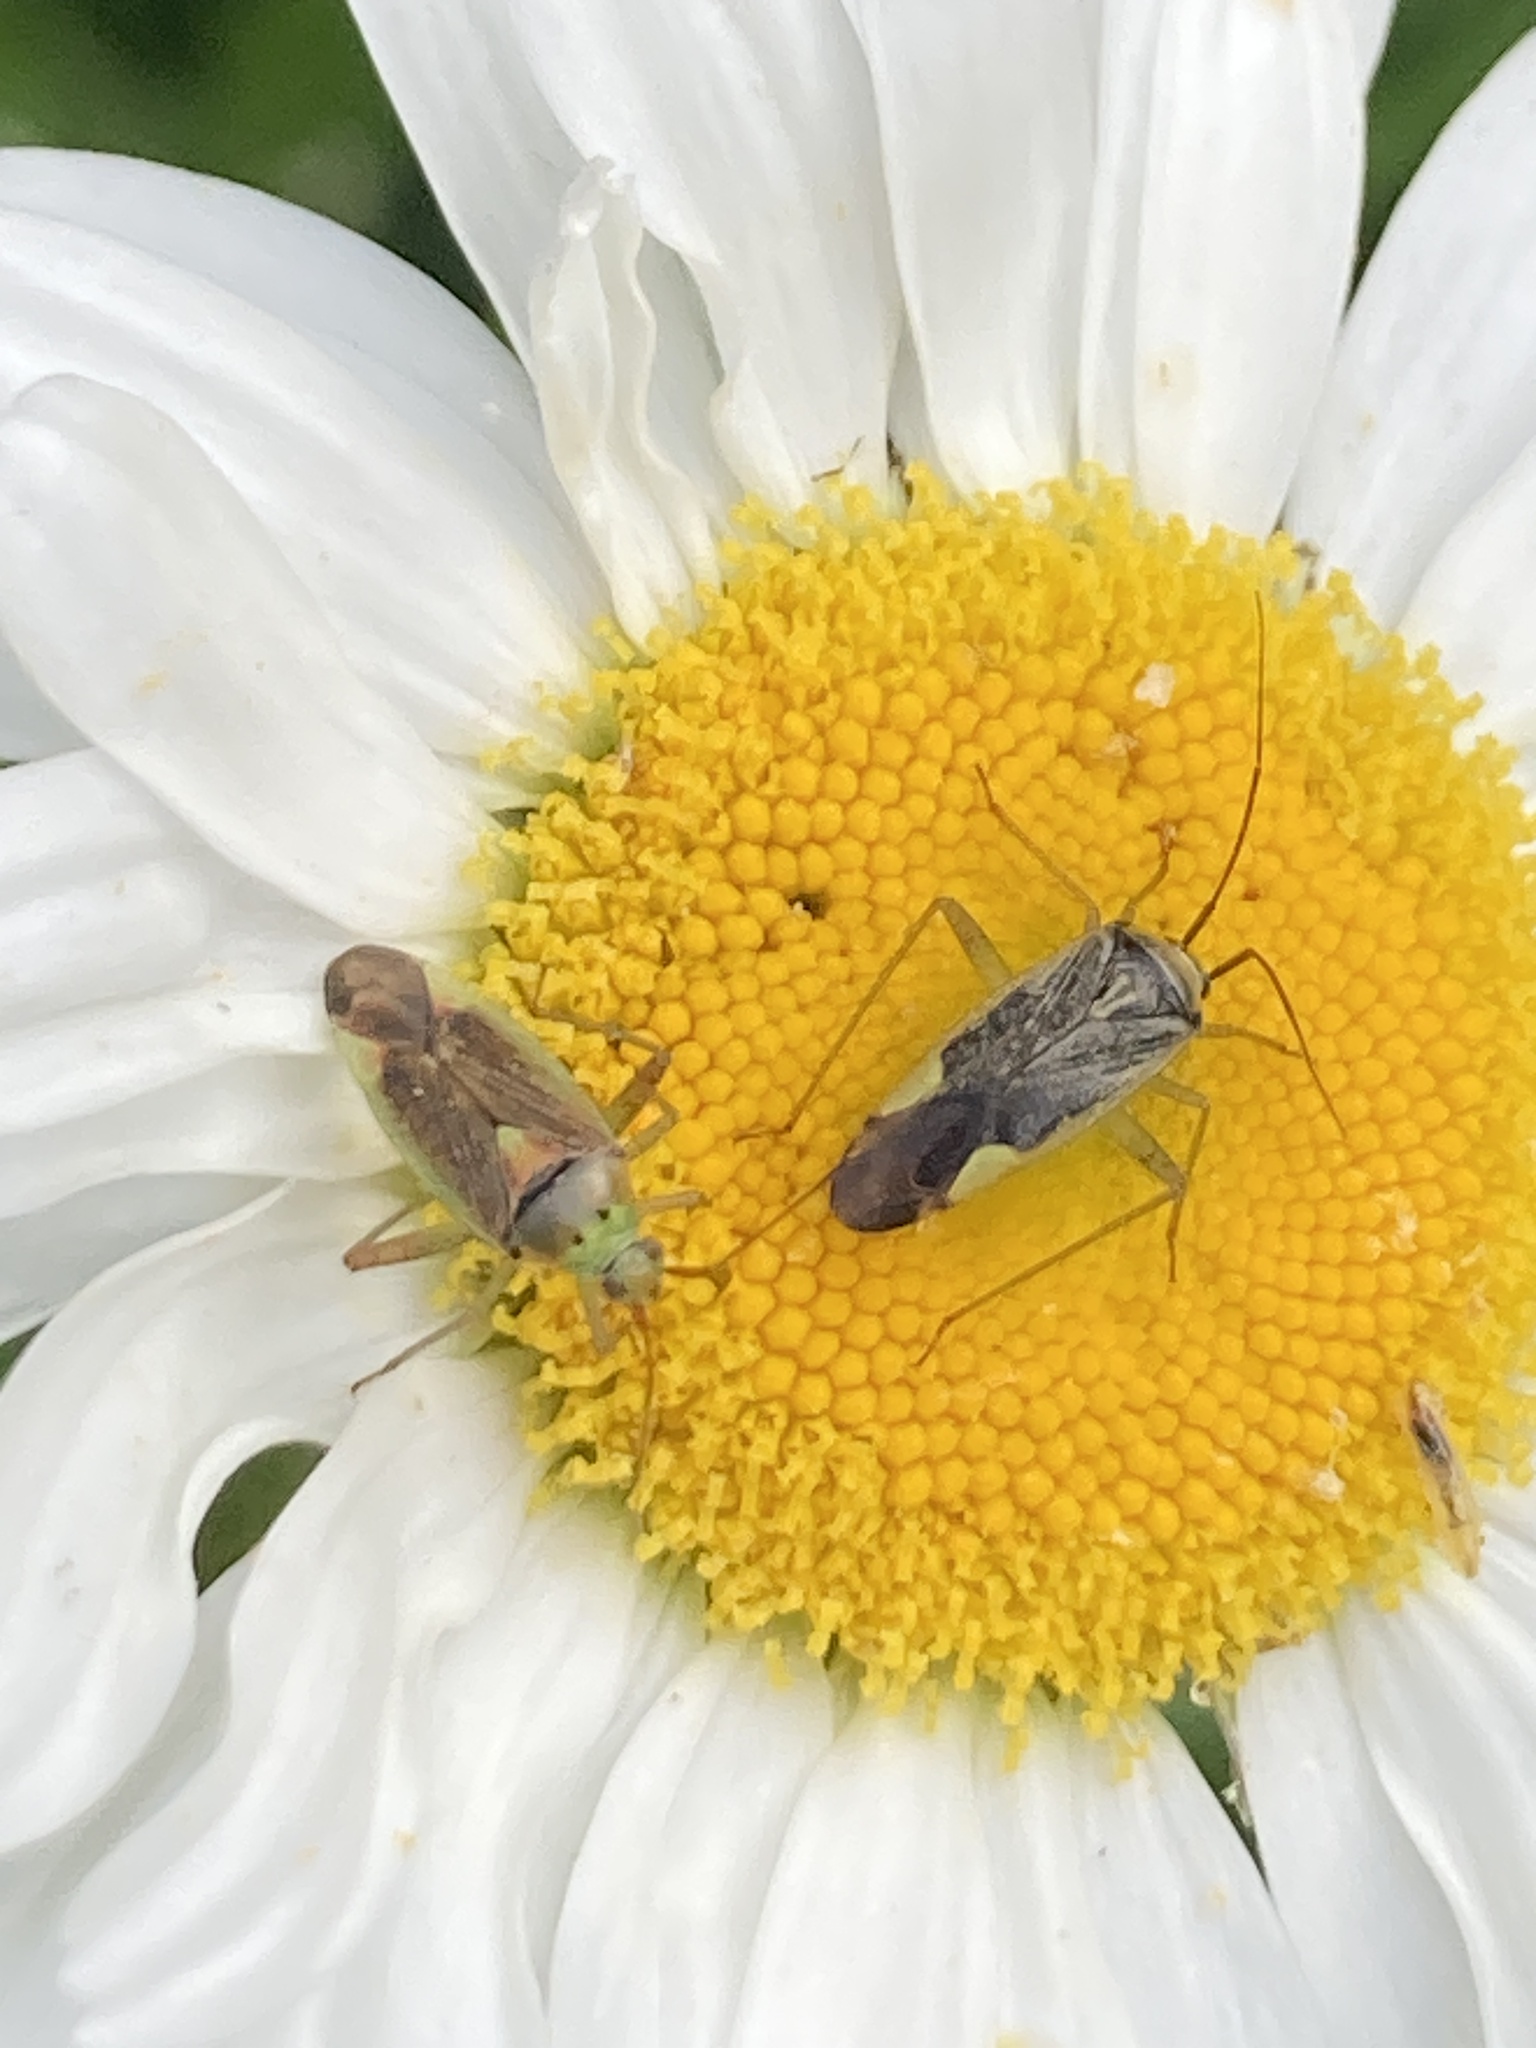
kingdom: Animalia
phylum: Arthropoda
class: Insecta
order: Hemiptera
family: Miridae
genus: Closterotomus
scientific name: Closterotomus trivialis
